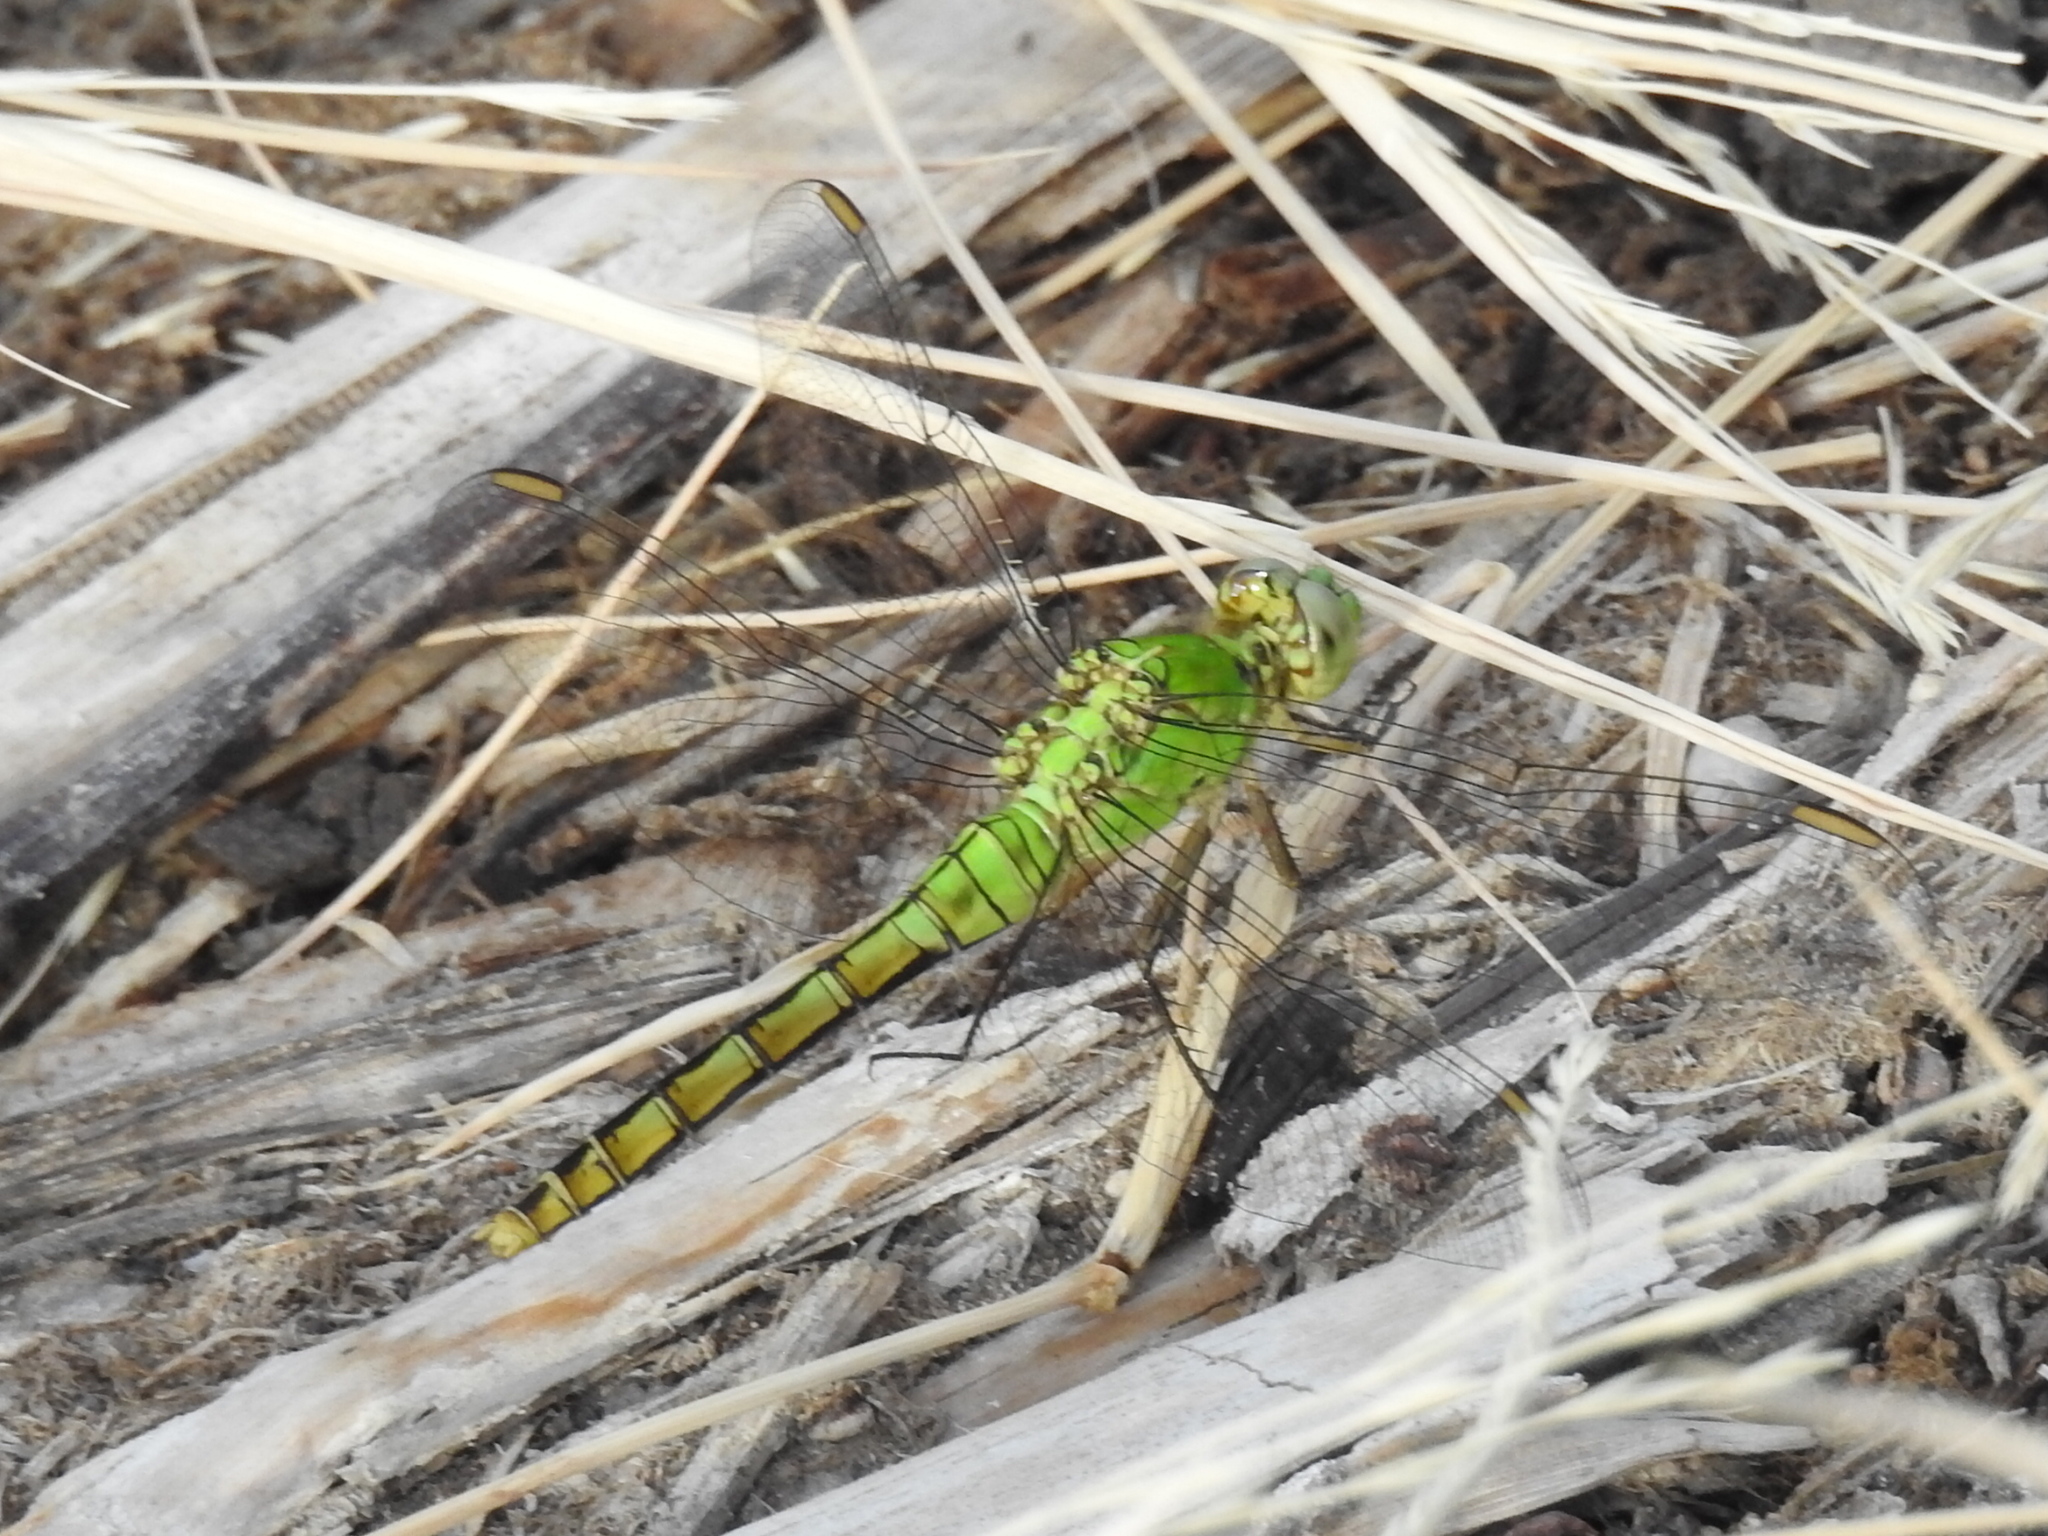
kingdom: Animalia
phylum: Arthropoda
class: Insecta
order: Odonata
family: Libellulidae
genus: Erythemis
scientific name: Erythemis collocata
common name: Western pondhawk
